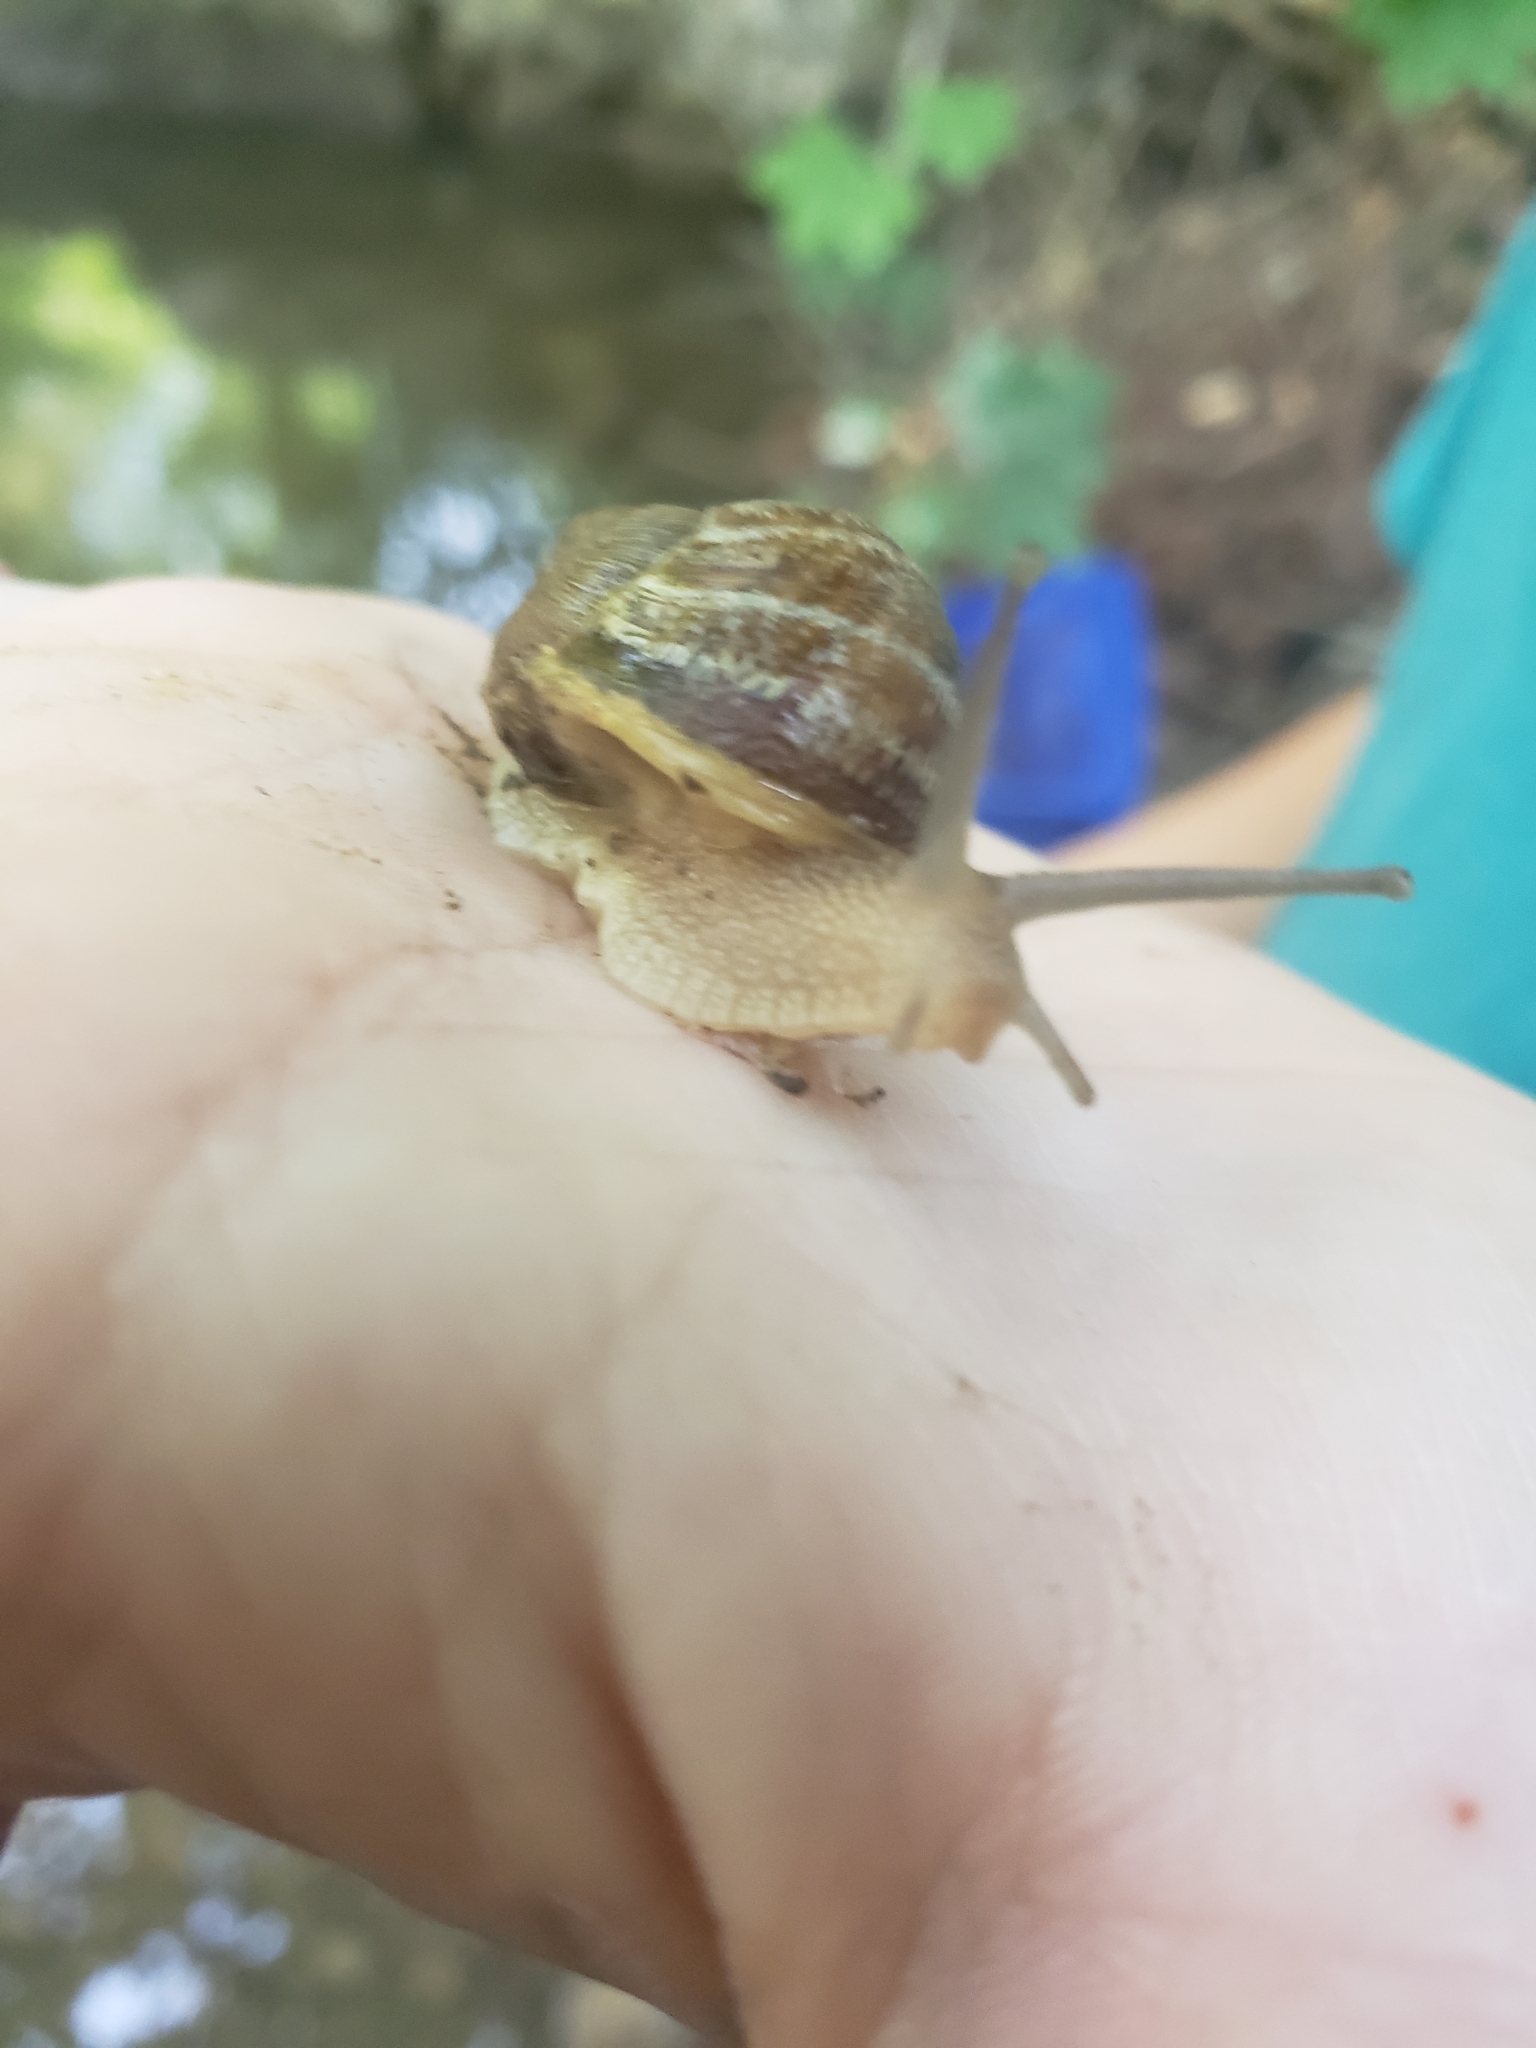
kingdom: Animalia
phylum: Mollusca
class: Gastropoda
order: Stylommatophora
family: Helicidae
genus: Cornu
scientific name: Cornu aspersum
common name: Brown garden snail
